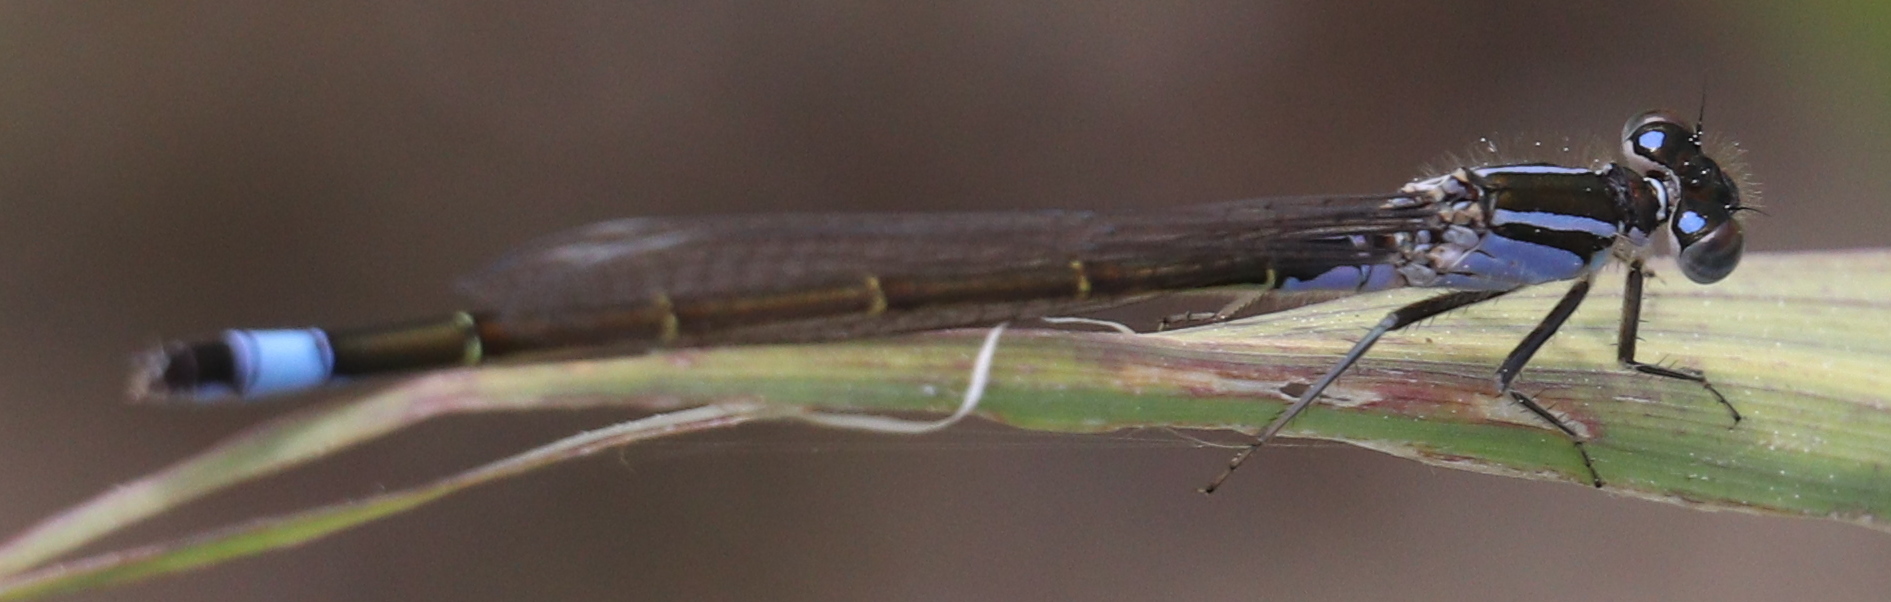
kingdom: Animalia
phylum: Arthropoda
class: Insecta
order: Odonata
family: Coenagrionidae
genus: Ischnura
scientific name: Ischnura elegans
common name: Blue-tailed damselfly
